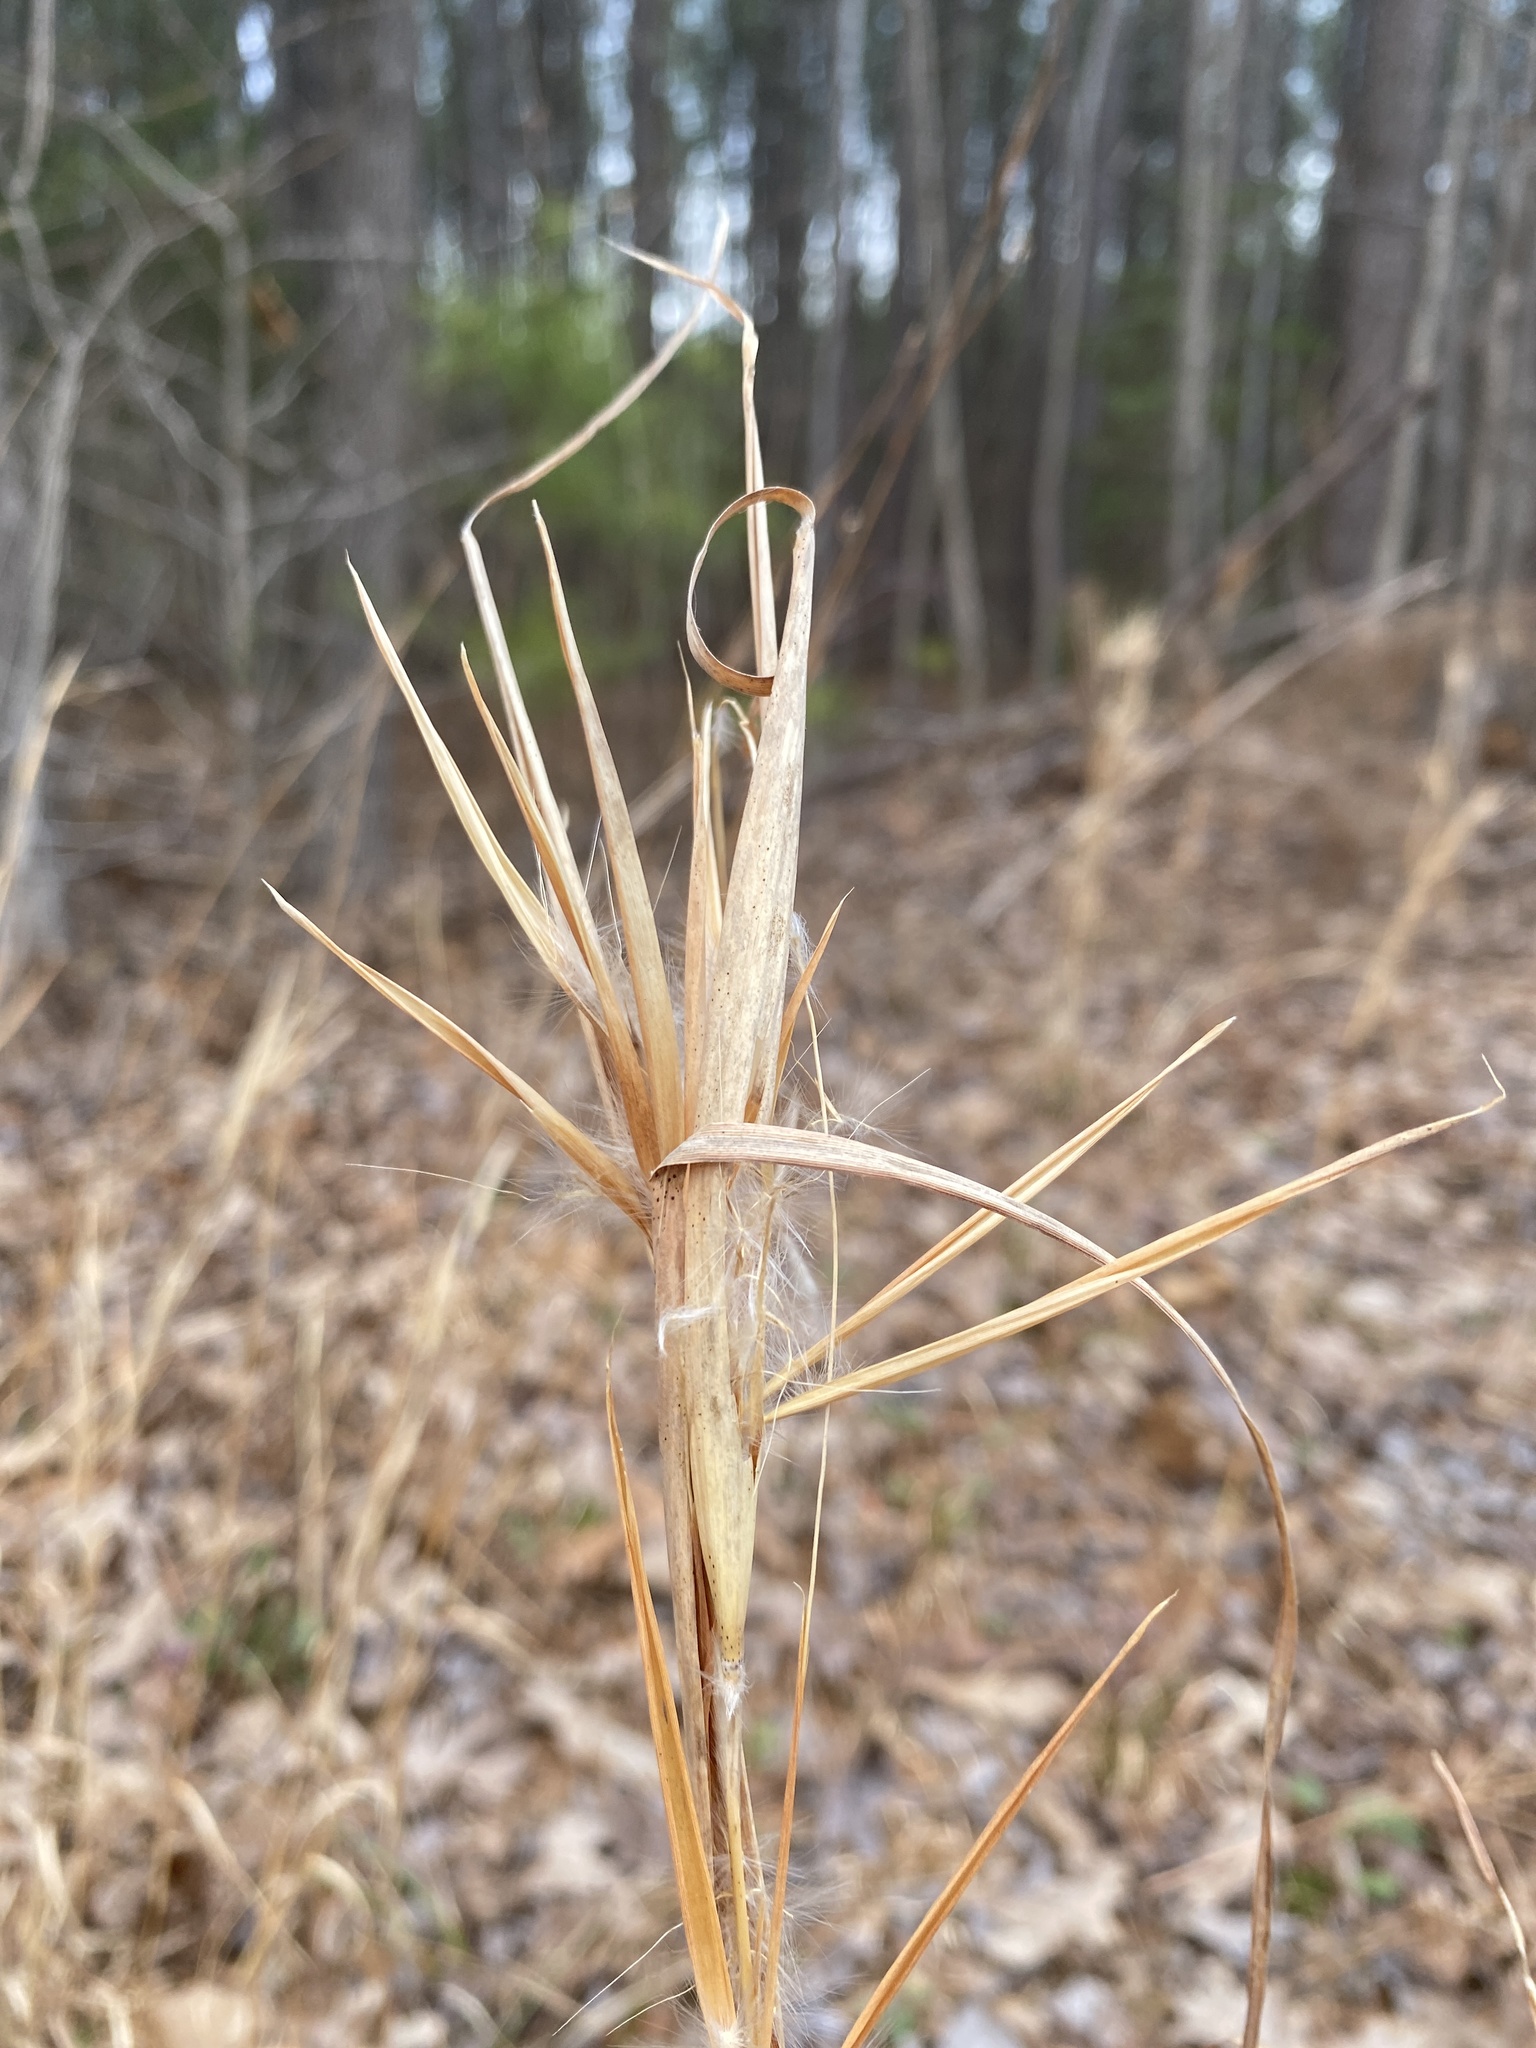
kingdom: Plantae
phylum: Tracheophyta
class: Liliopsida
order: Poales
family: Poaceae
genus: Andropogon
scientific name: Andropogon gyrans
